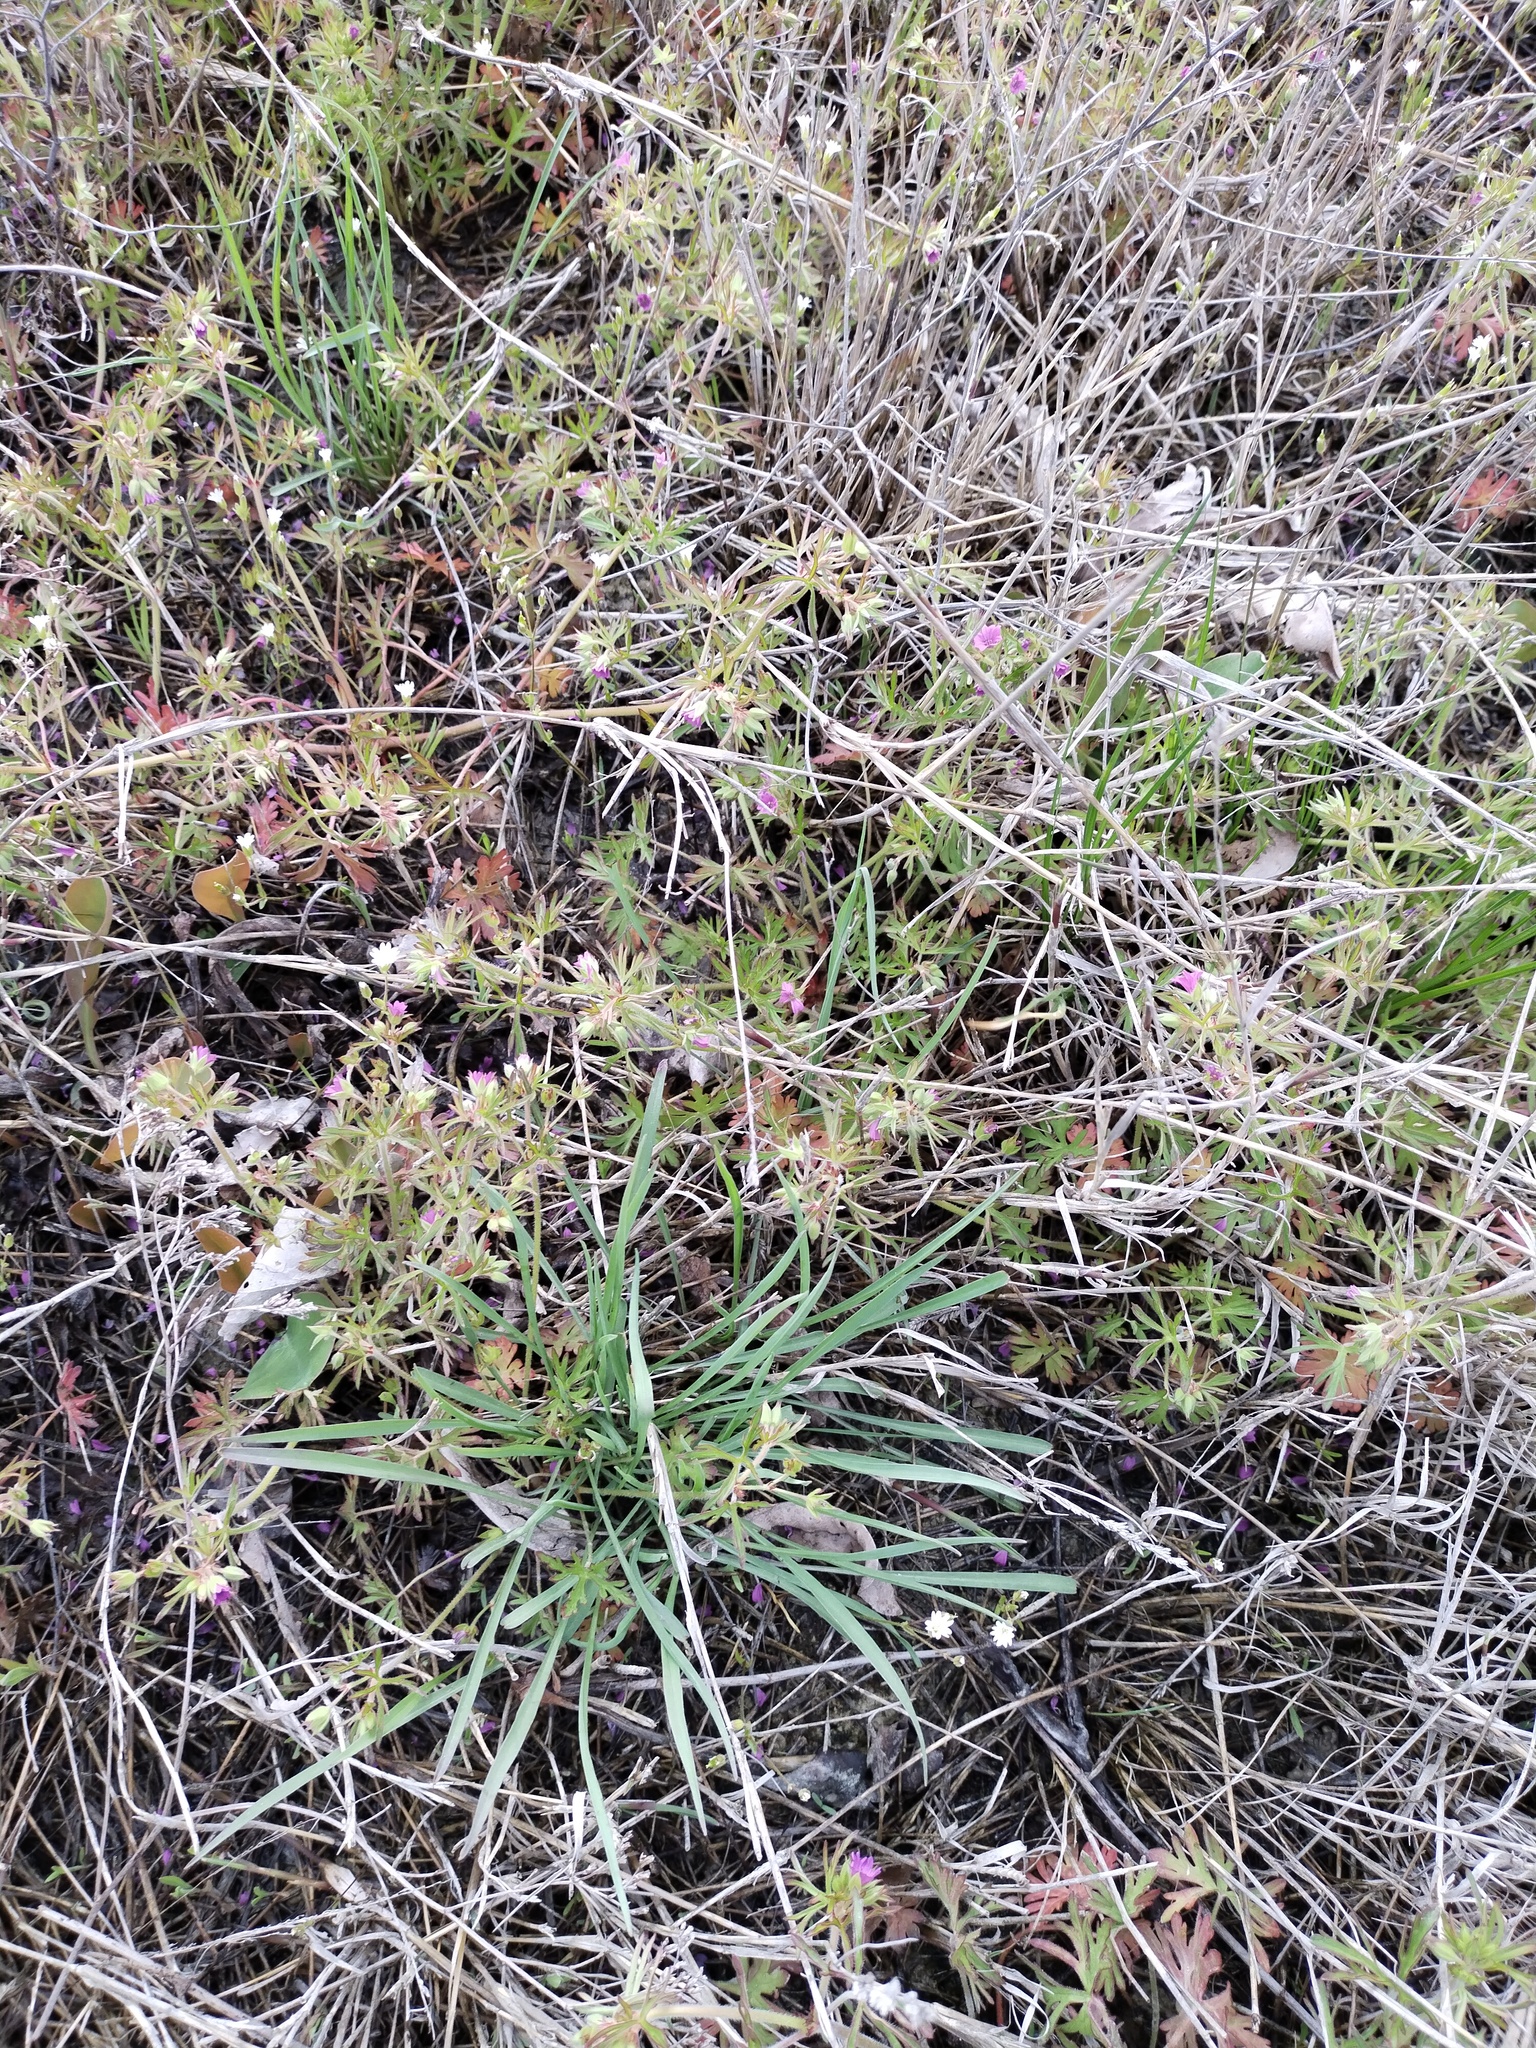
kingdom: Plantae
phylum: Tracheophyta
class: Magnoliopsida
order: Geraniales
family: Geraniaceae
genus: Geranium
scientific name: Geranium dissectum
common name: Cut-leaved crane's-bill
